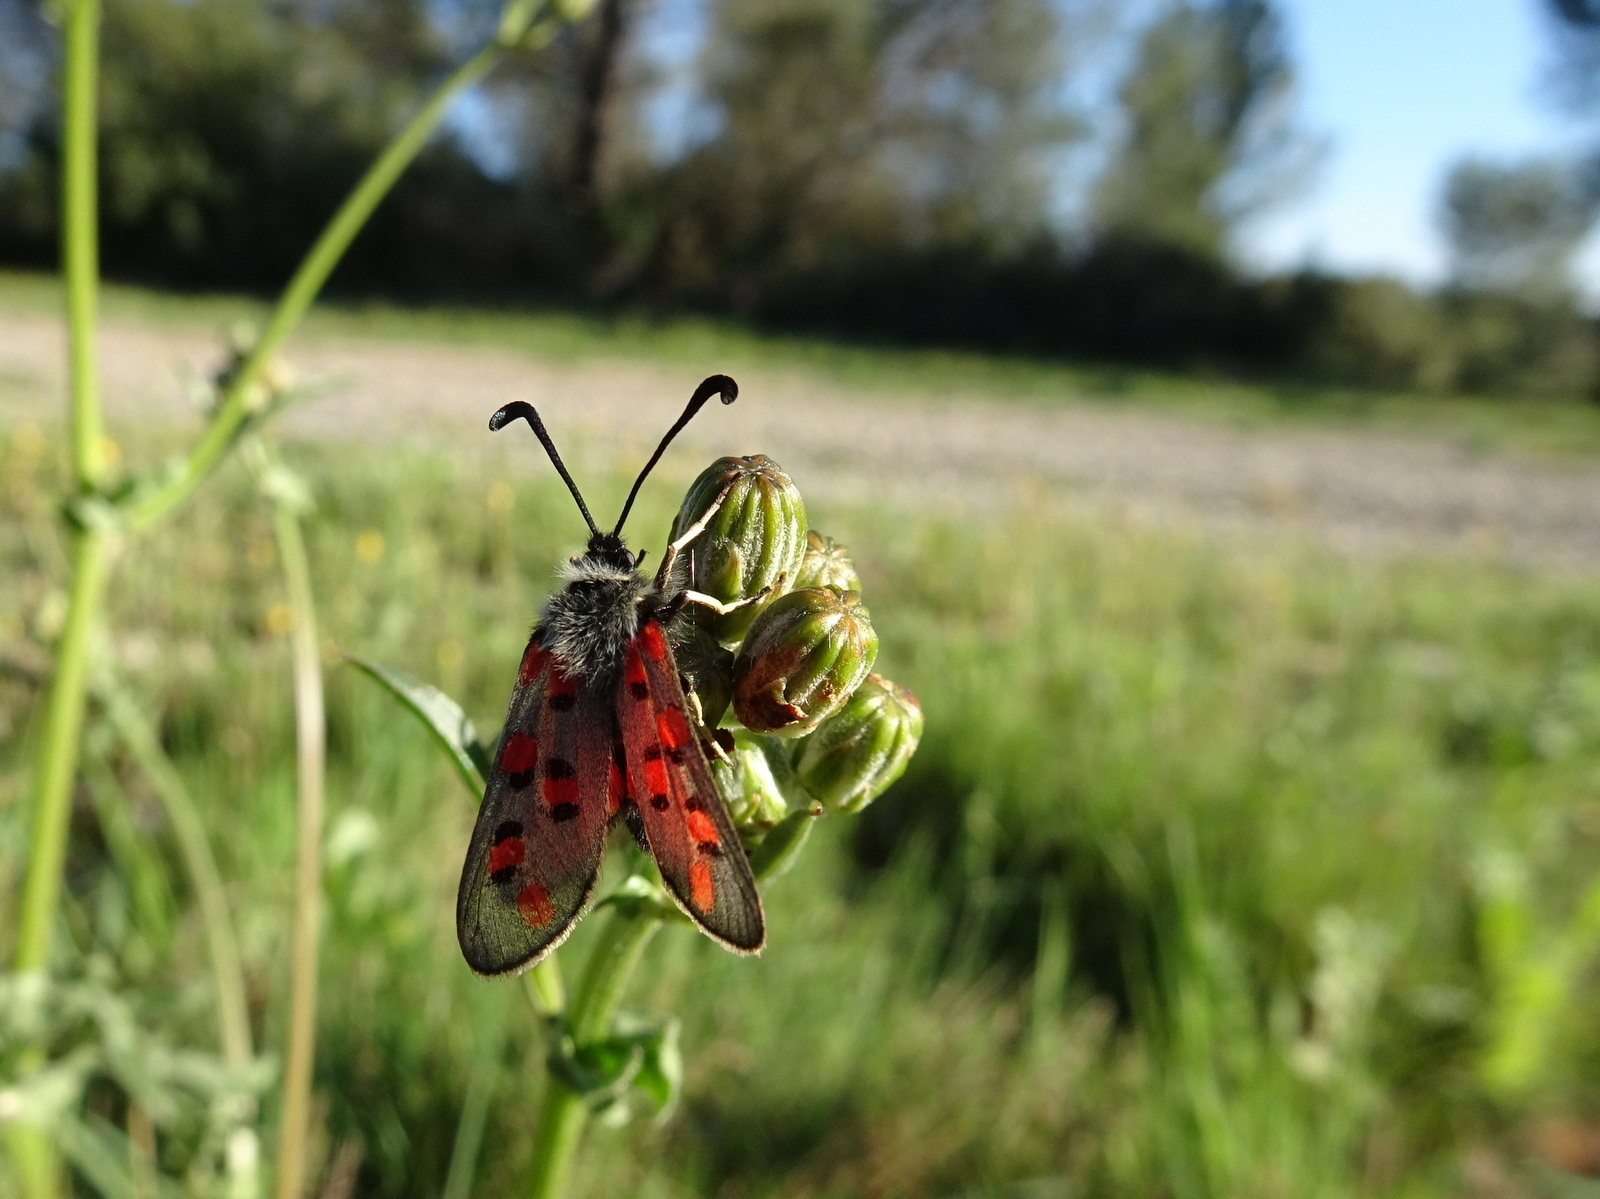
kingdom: Animalia
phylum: Arthropoda
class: Insecta
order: Lepidoptera
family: Zygaenidae
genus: Zygaena
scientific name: Zygaena rhadamanthus
